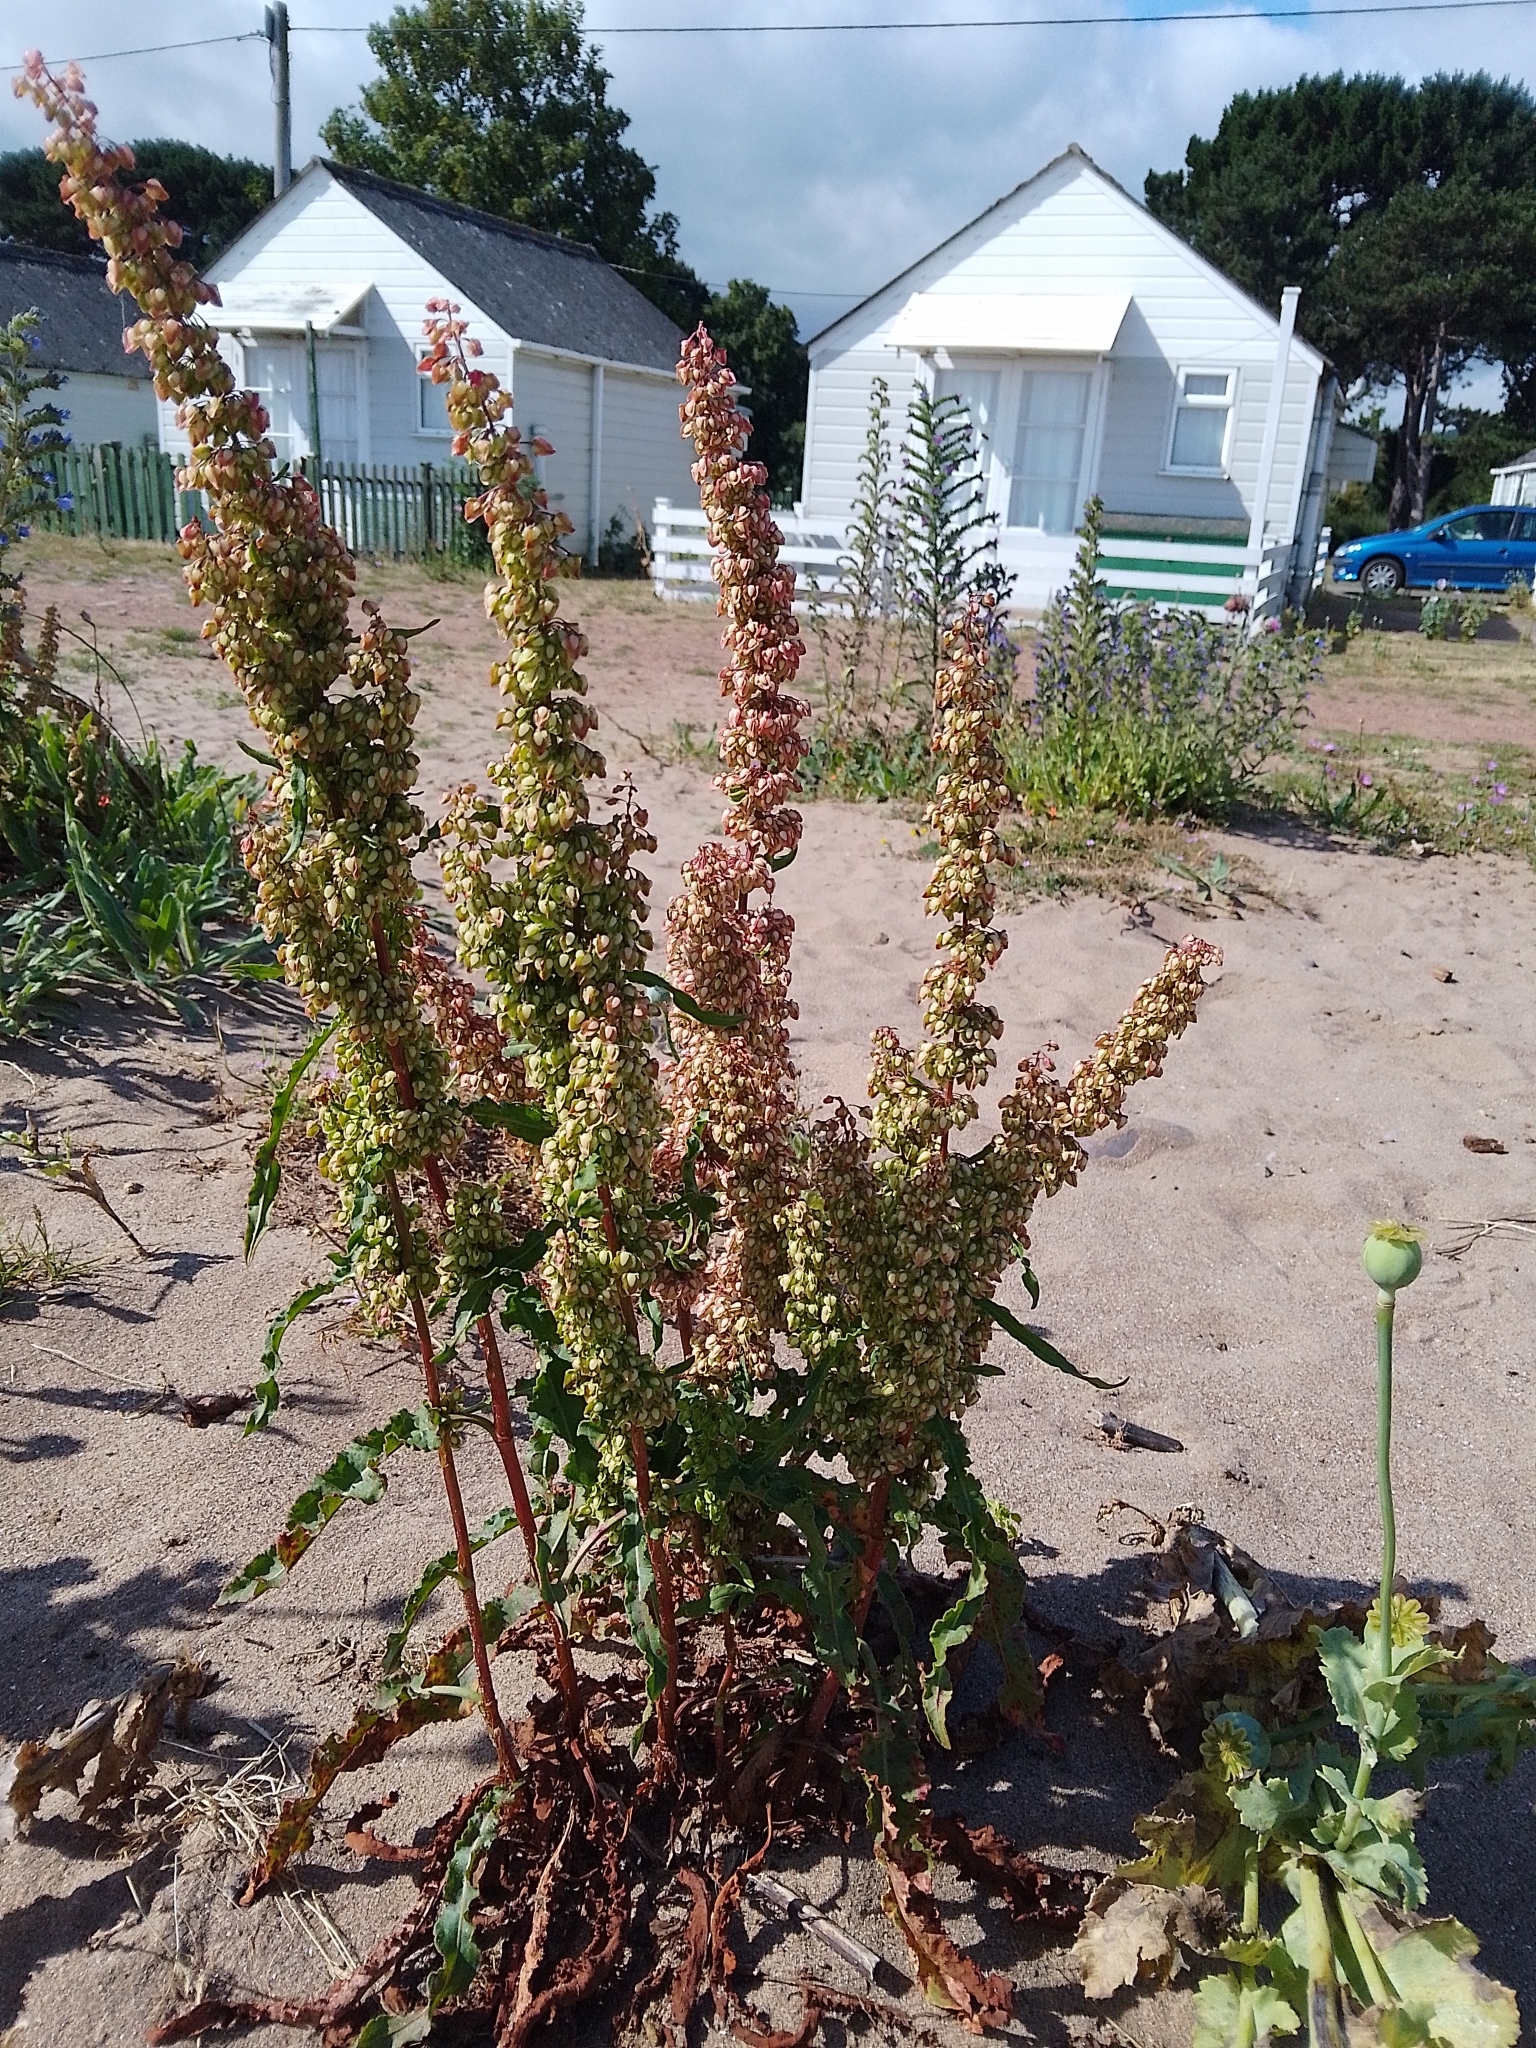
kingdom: Plantae
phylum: Tracheophyta
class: Magnoliopsida
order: Caryophyllales
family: Polygonaceae
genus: Rumex
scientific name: Rumex crispus
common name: Curled dock
